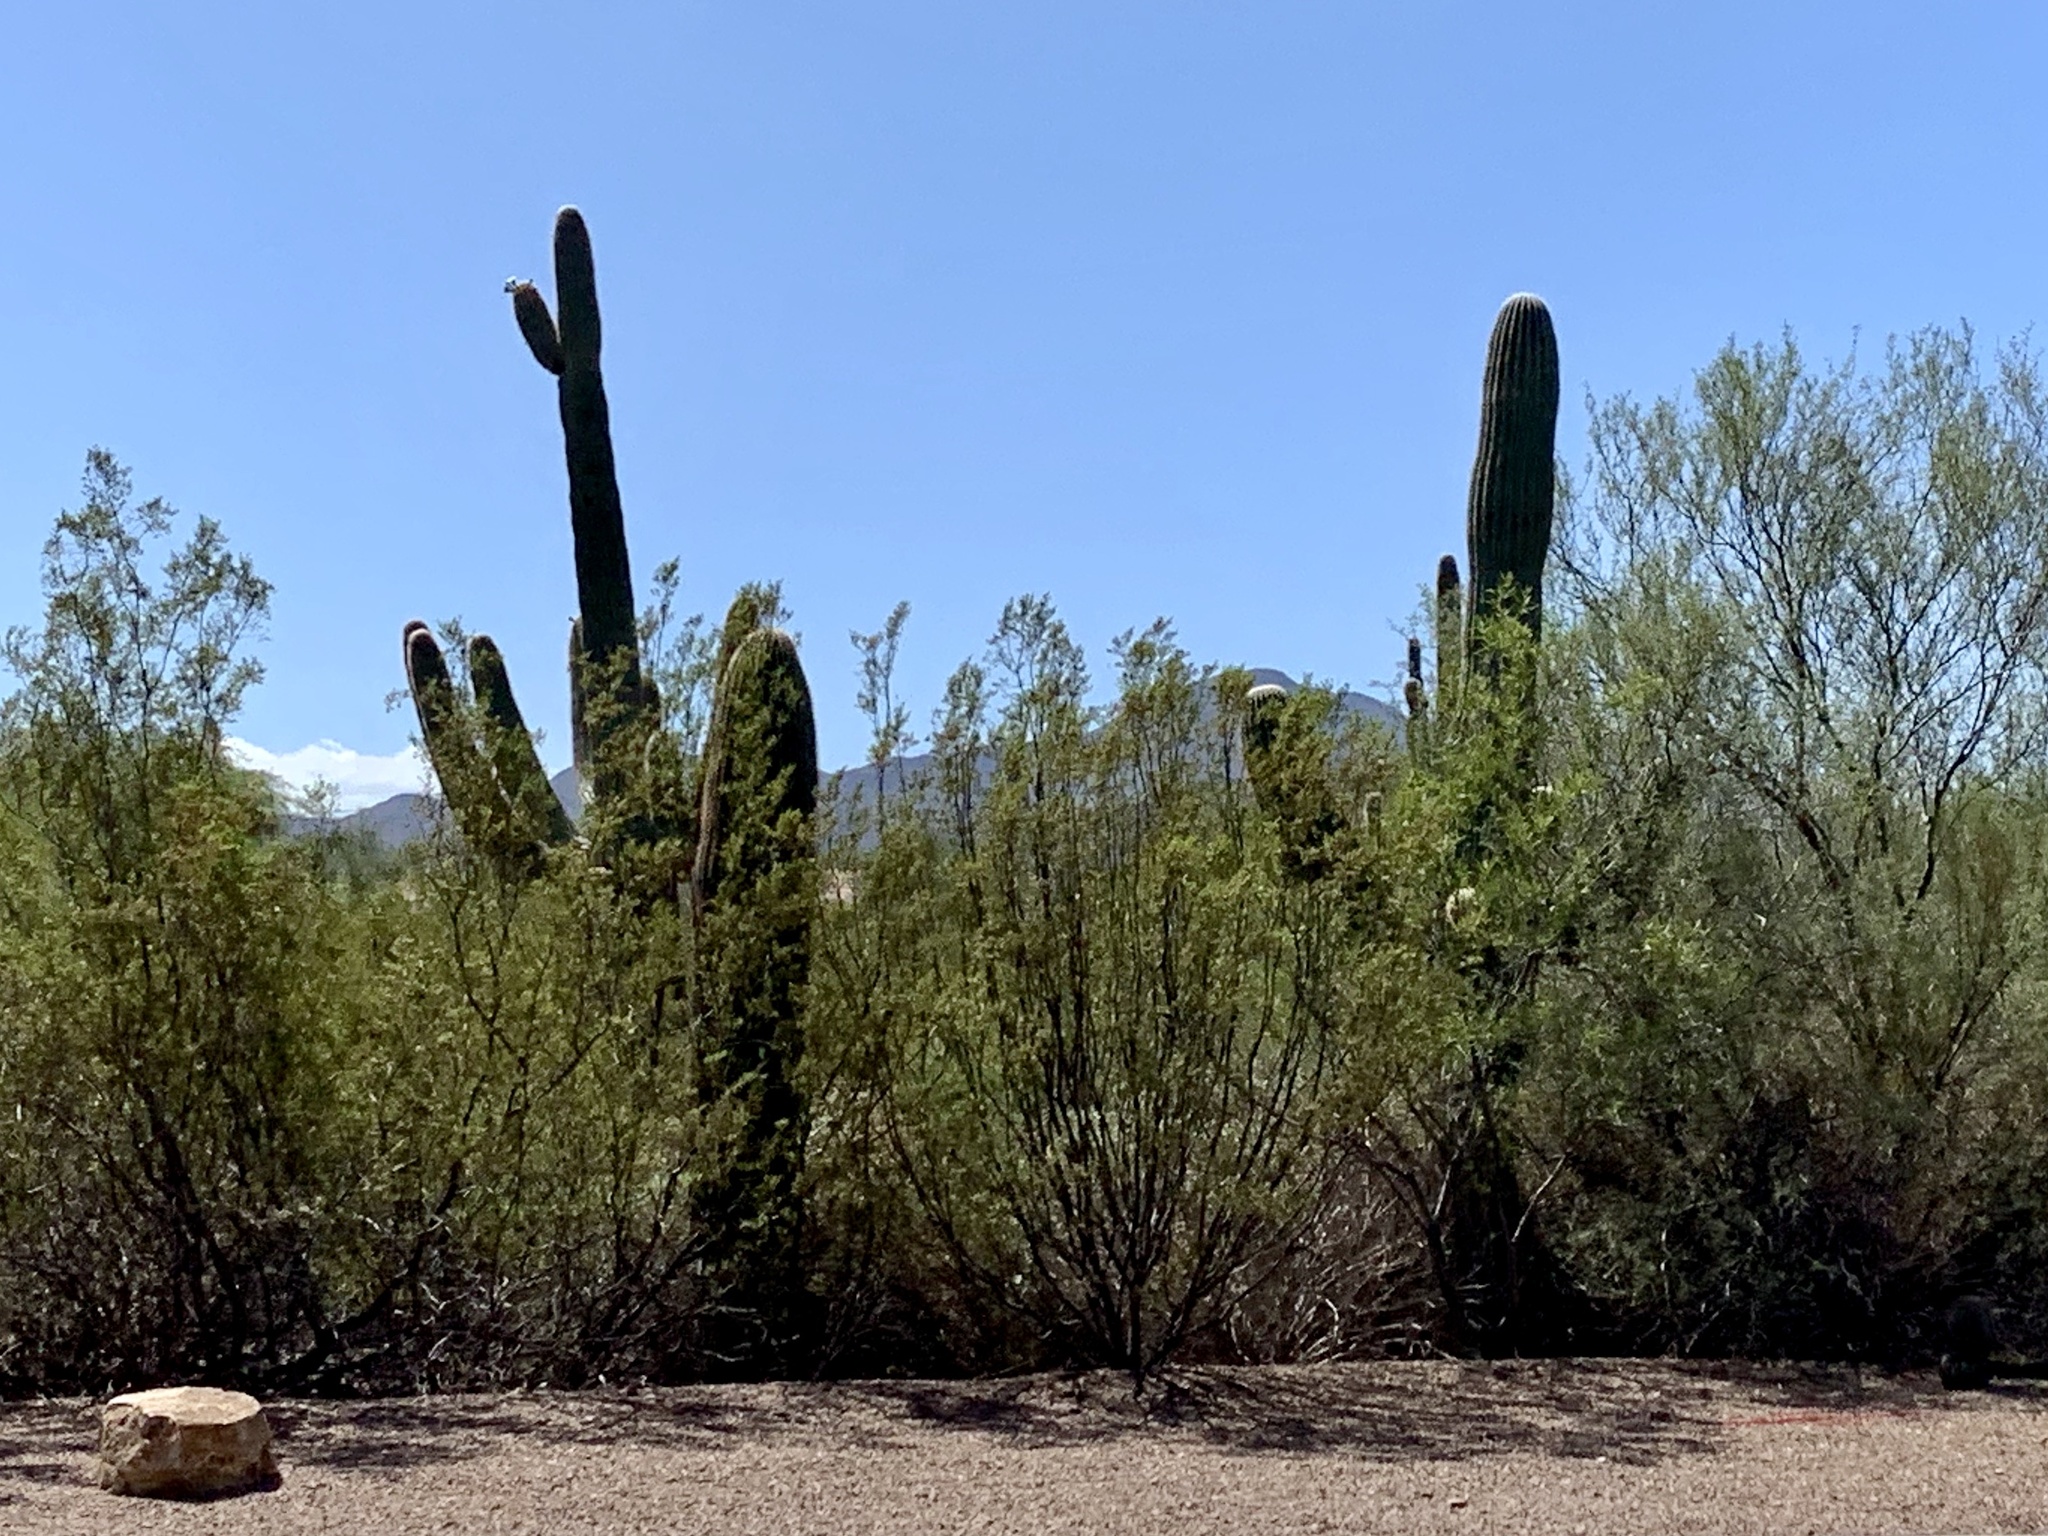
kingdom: Plantae
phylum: Tracheophyta
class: Magnoliopsida
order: Caryophyllales
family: Cactaceae
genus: Carnegiea
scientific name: Carnegiea gigantea
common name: Saguaro
